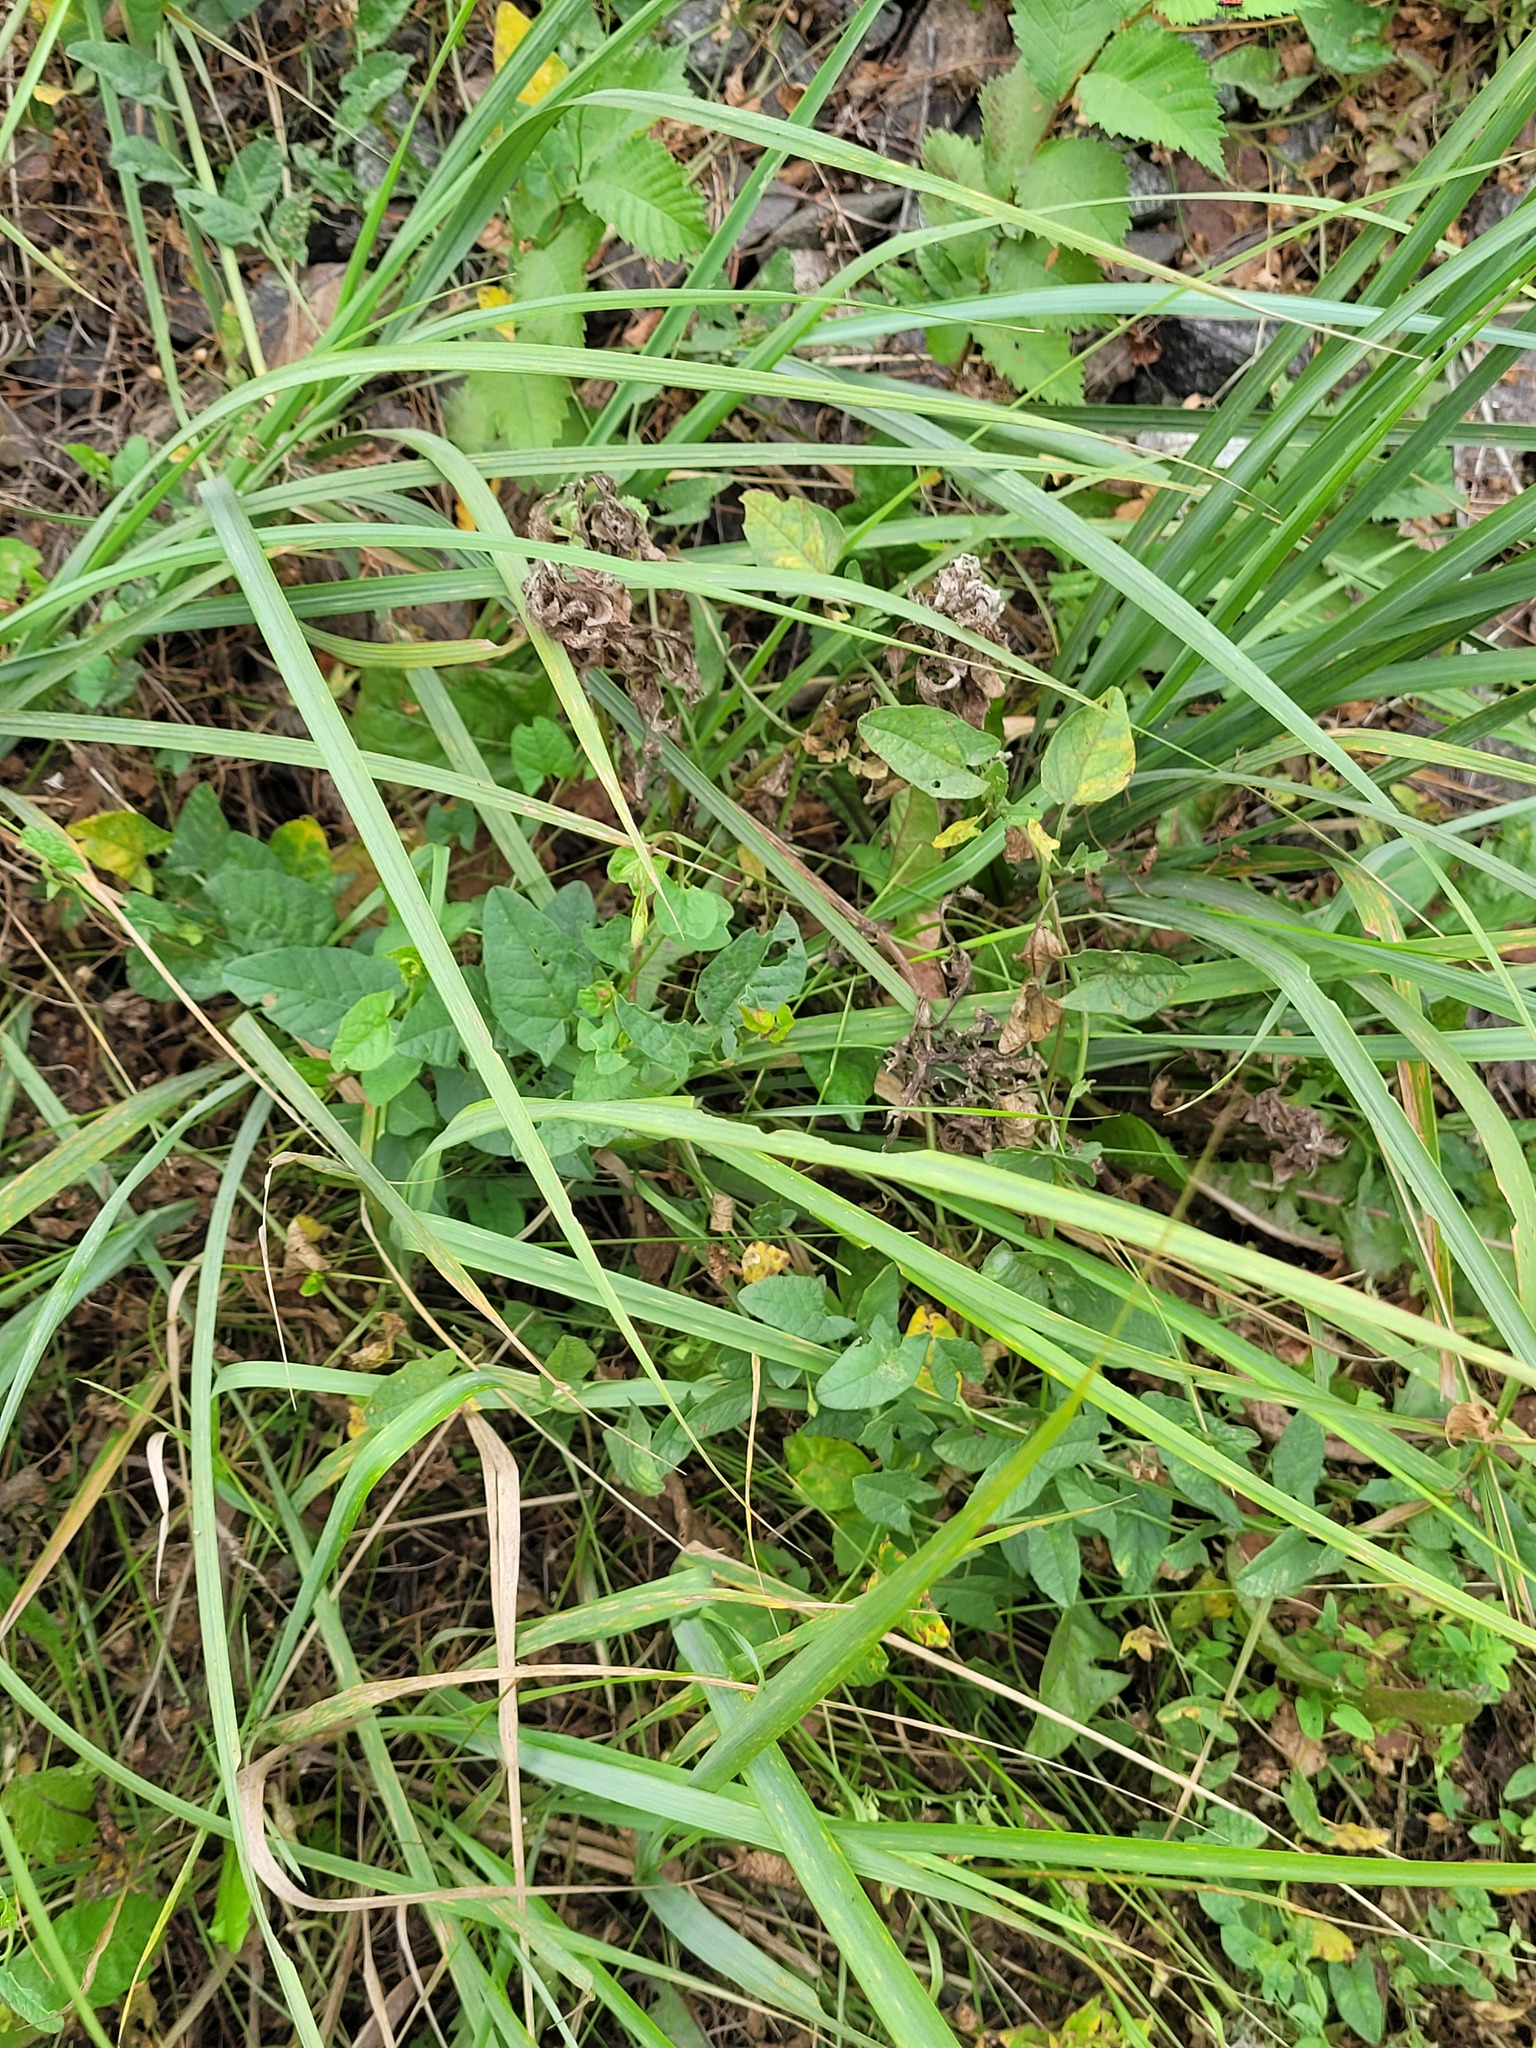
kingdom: Plantae
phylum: Tracheophyta
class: Magnoliopsida
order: Solanales
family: Convolvulaceae
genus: Convolvulus
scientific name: Convolvulus arvensis
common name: Field bindweed
